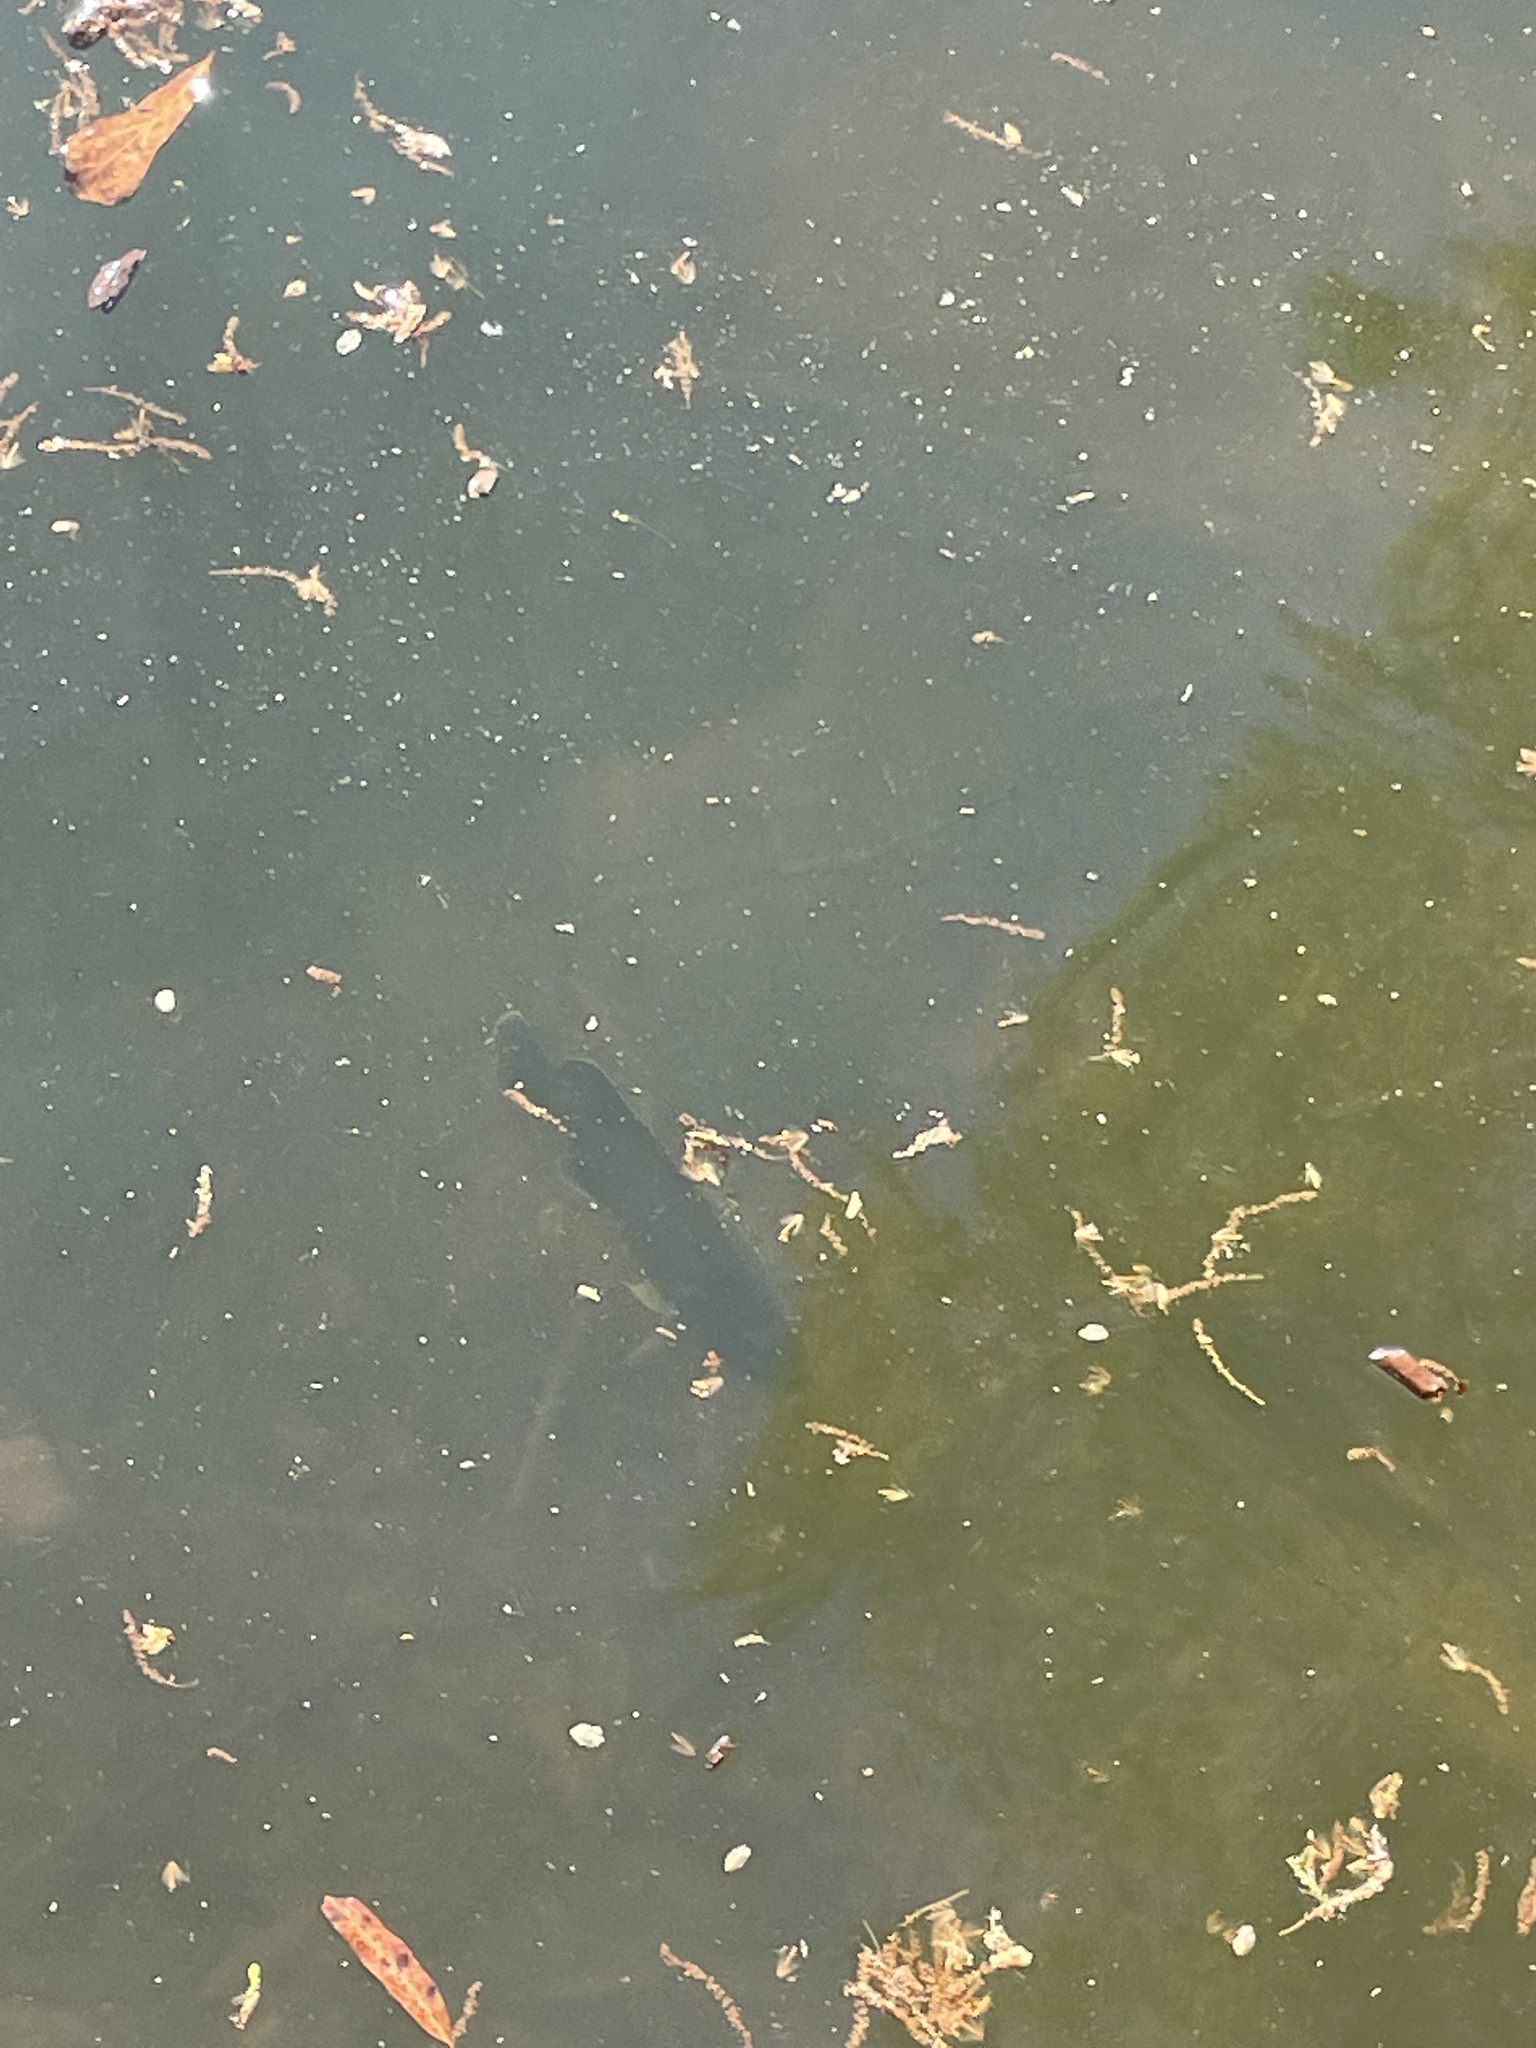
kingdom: Animalia
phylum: Chordata
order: Perciformes
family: Centrarchidae
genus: Lepomis
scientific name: Lepomis cyanellus
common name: Green sunfish
